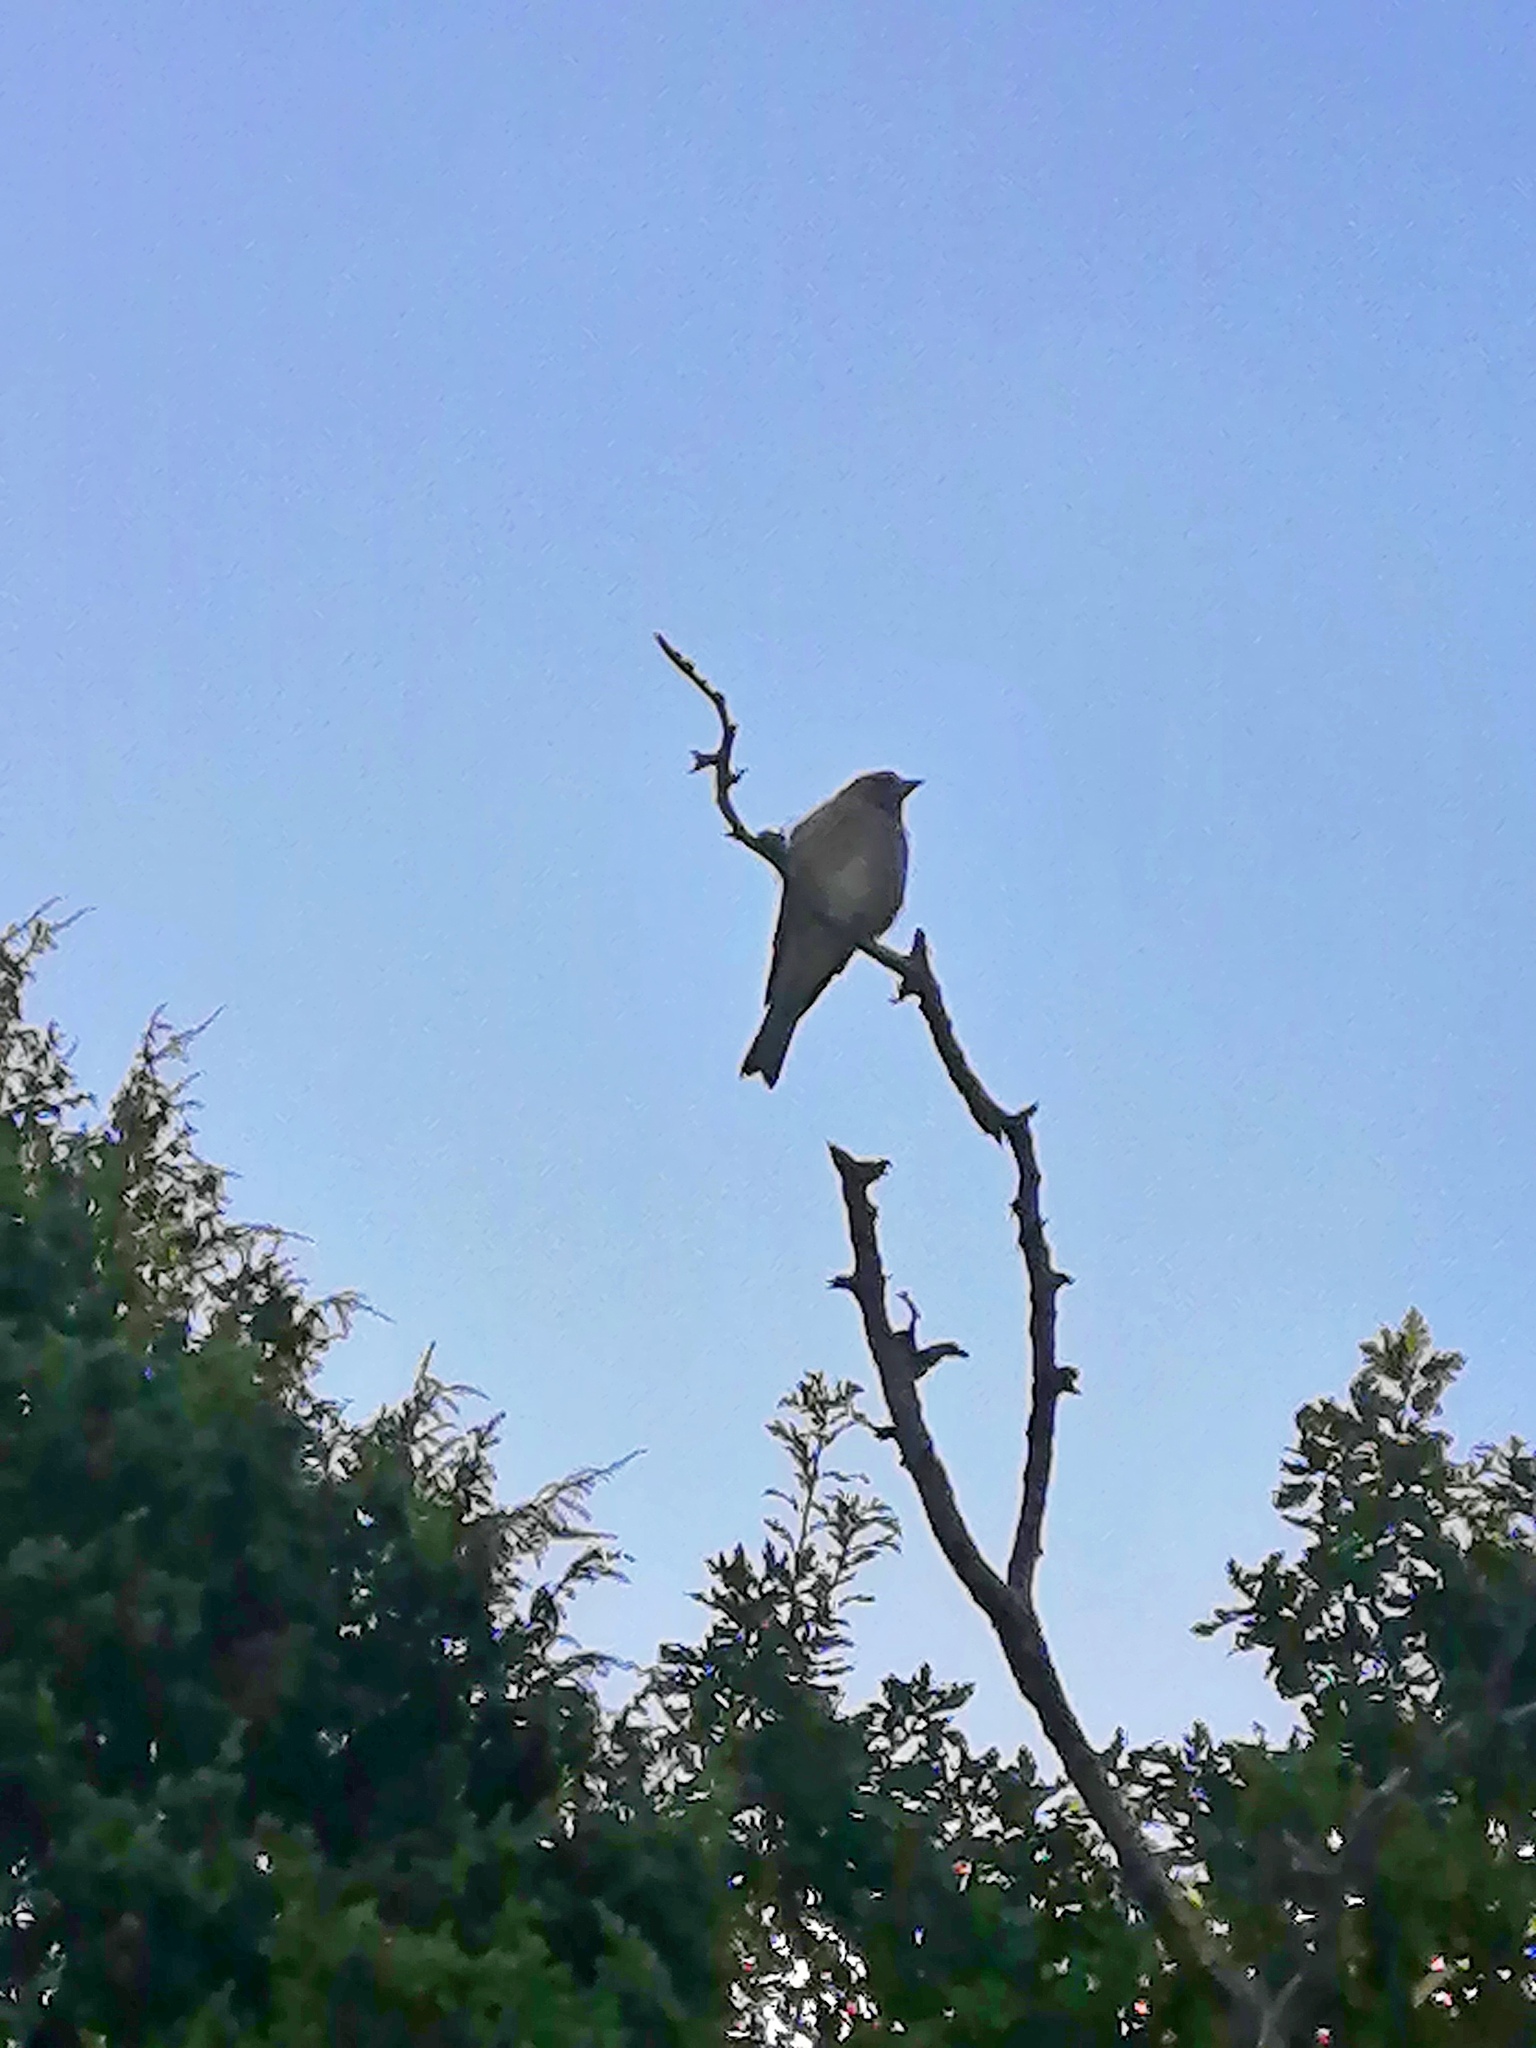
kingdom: Animalia
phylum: Chordata
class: Aves
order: Passeriformes
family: Muscicapidae
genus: Muscicapa
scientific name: Muscicapa striata
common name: Spotted flycatcher
